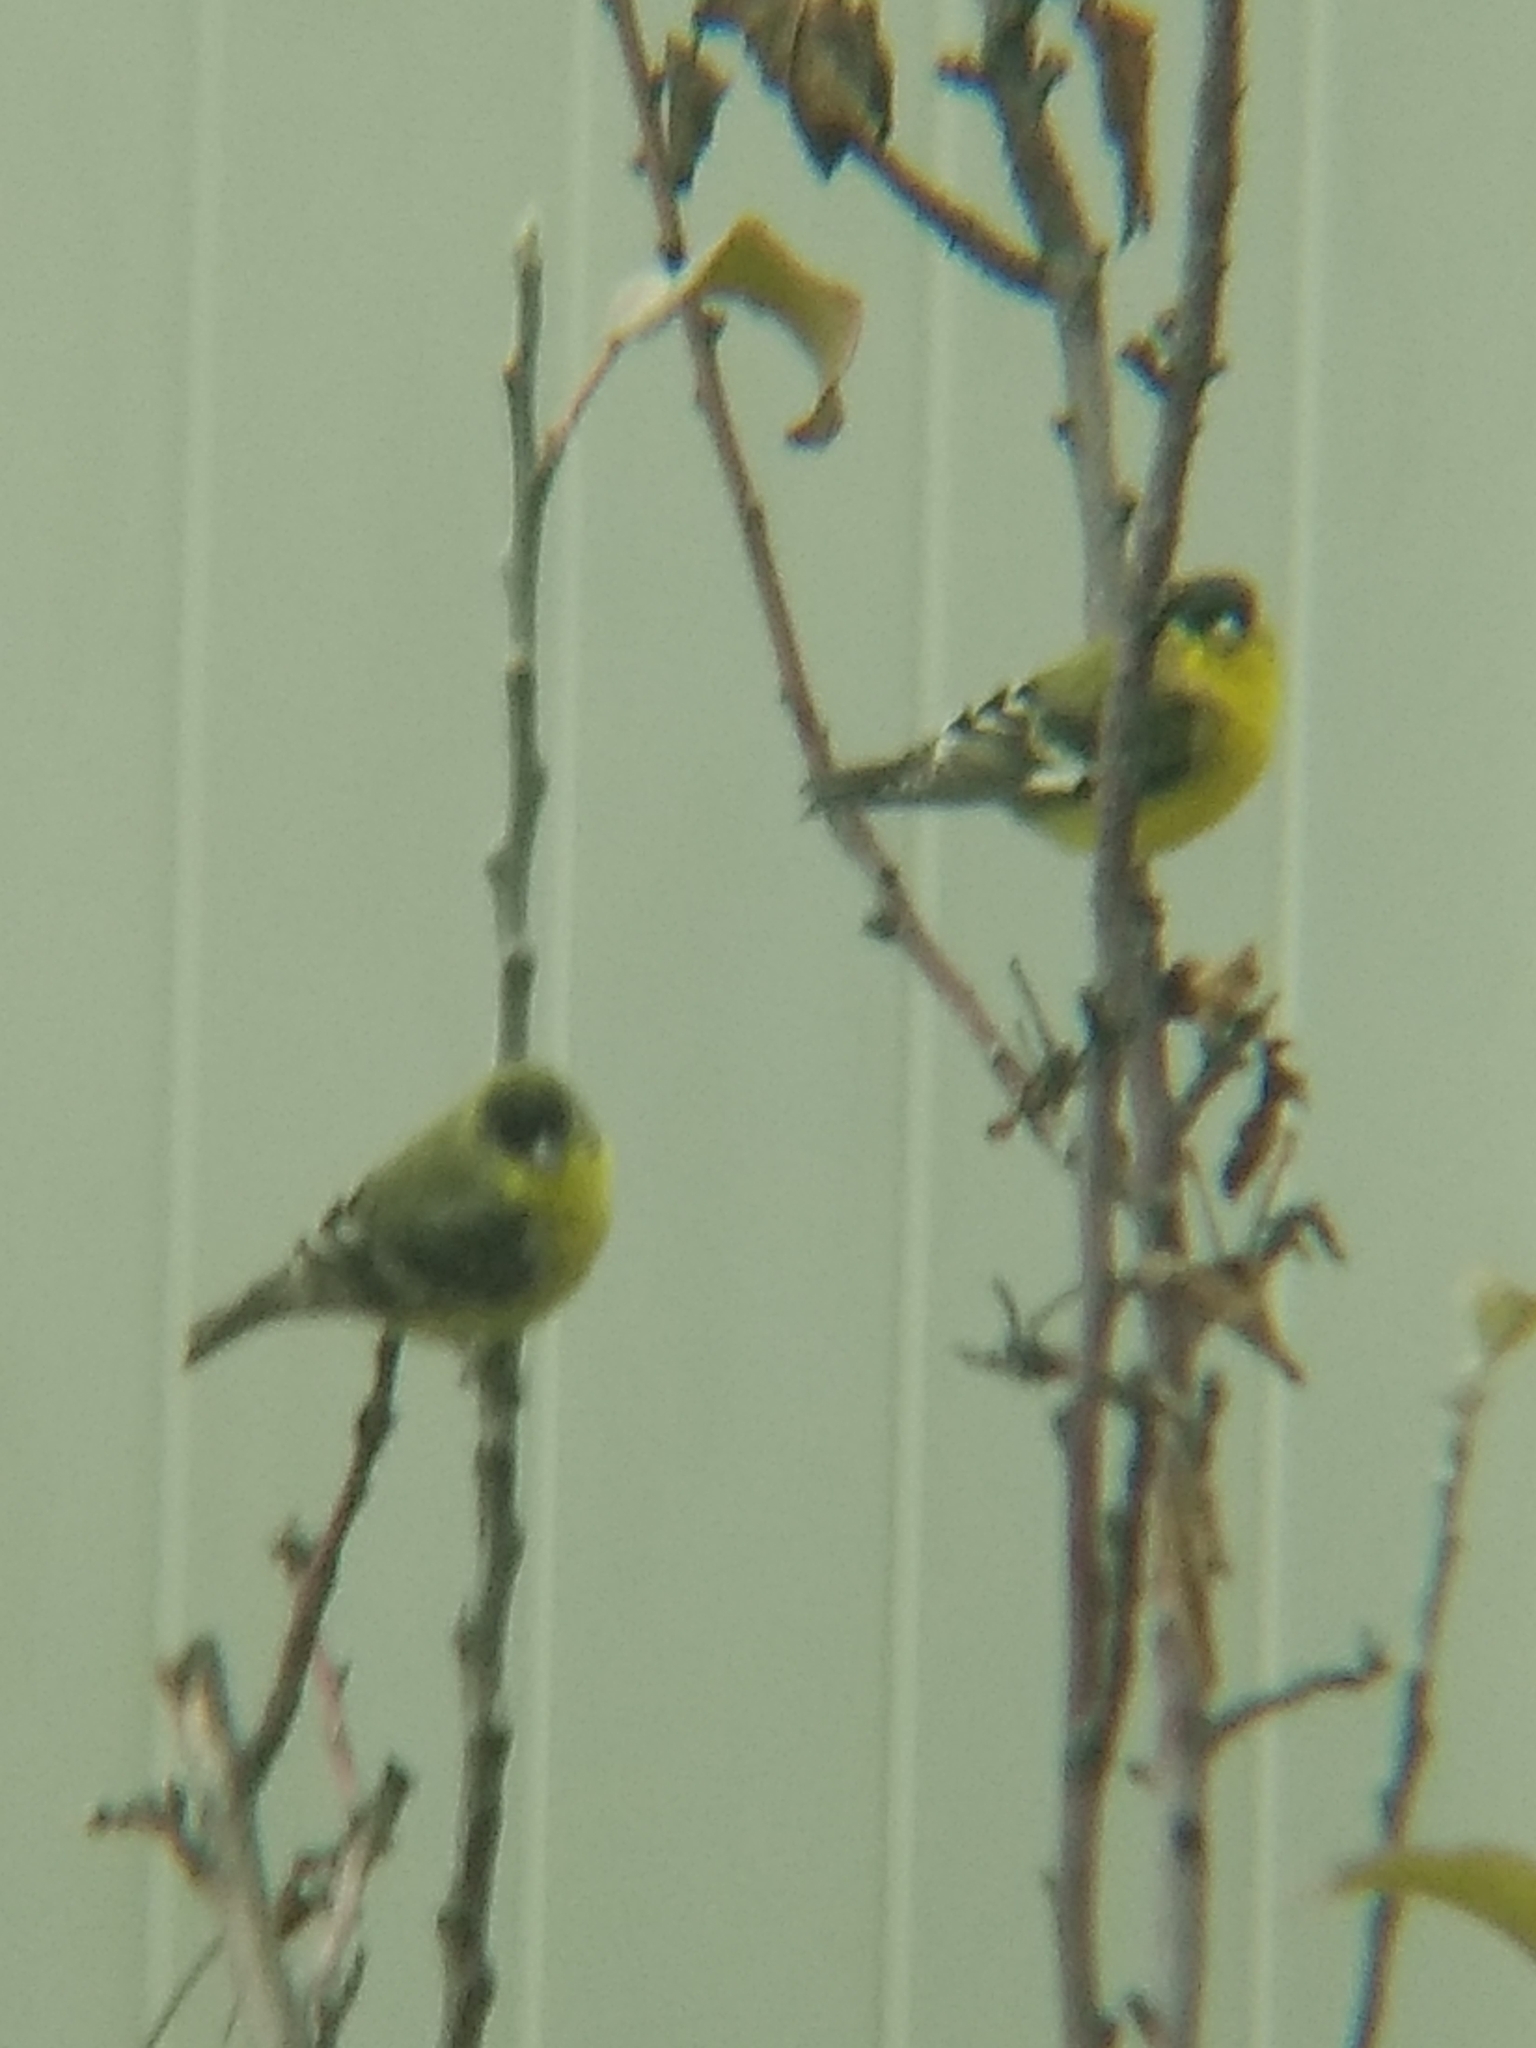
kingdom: Animalia
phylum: Chordata
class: Aves
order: Passeriformes
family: Fringillidae
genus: Spinus
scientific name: Spinus psaltria
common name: Lesser goldfinch
